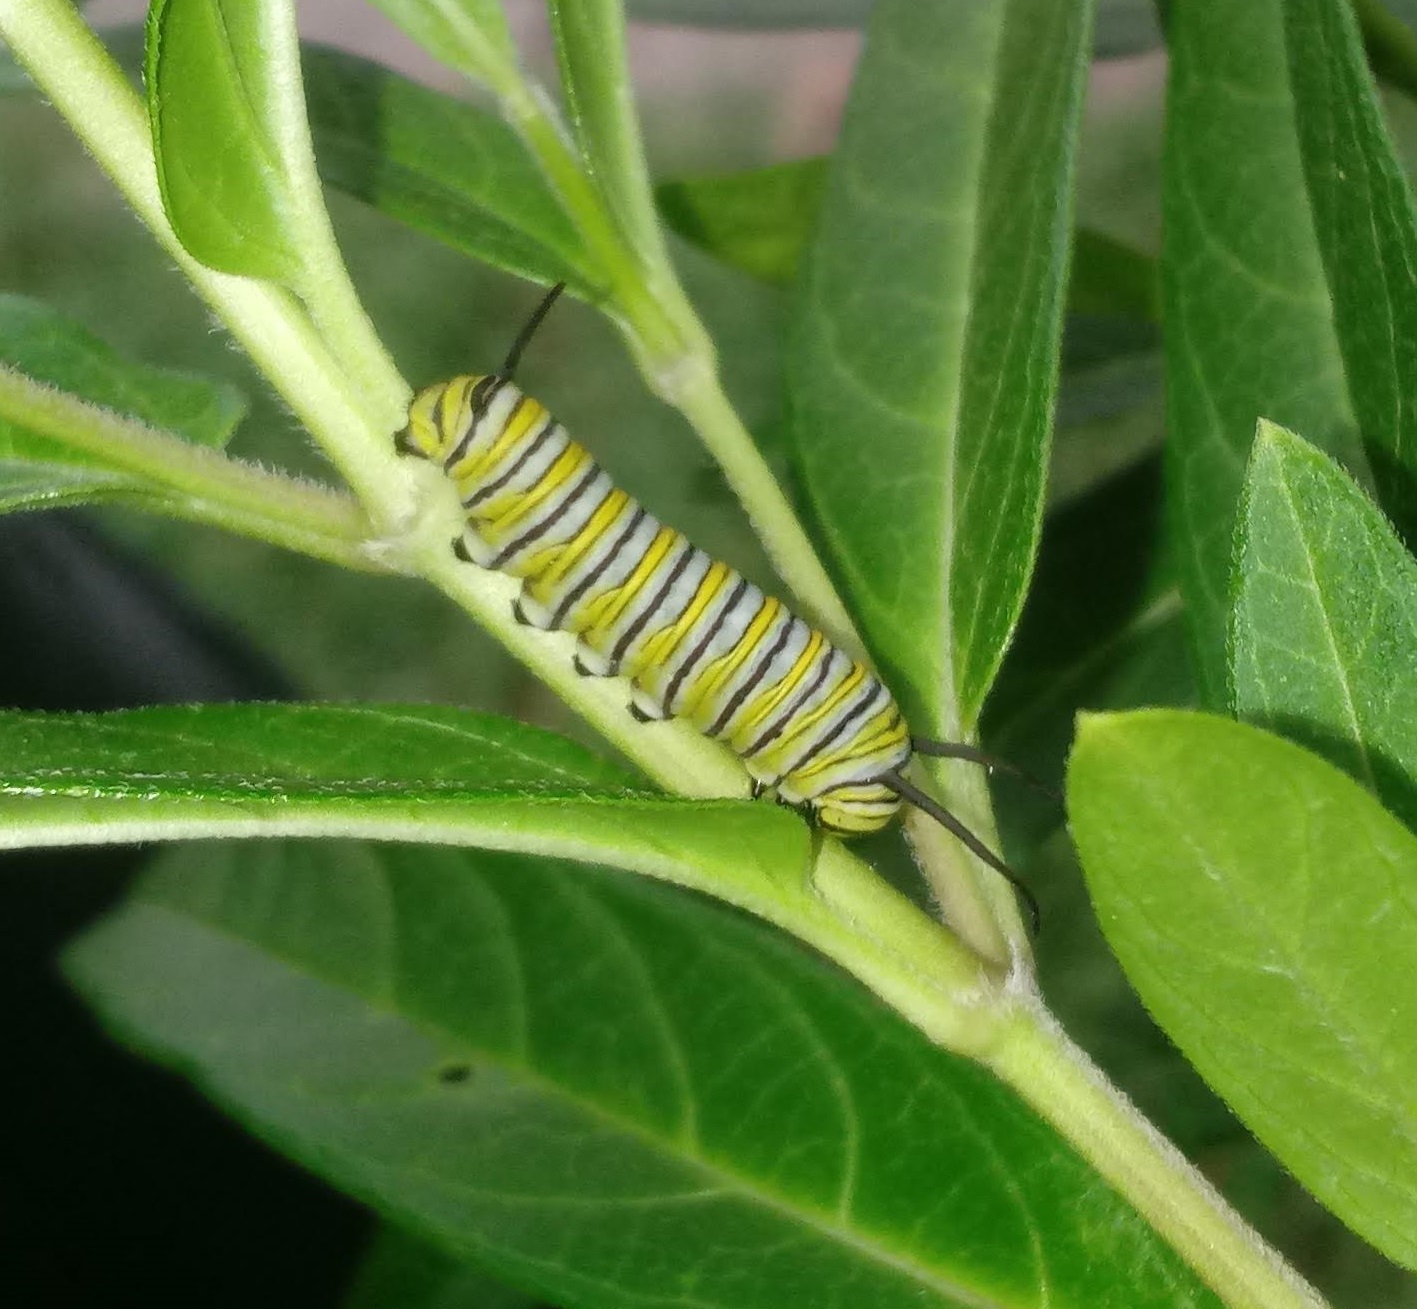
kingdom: Animalia
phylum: Arthropoda
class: Insecta
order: Lepidoptera
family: Nymphalidae
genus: Danaus
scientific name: Danaus plexippus
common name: Monarch
